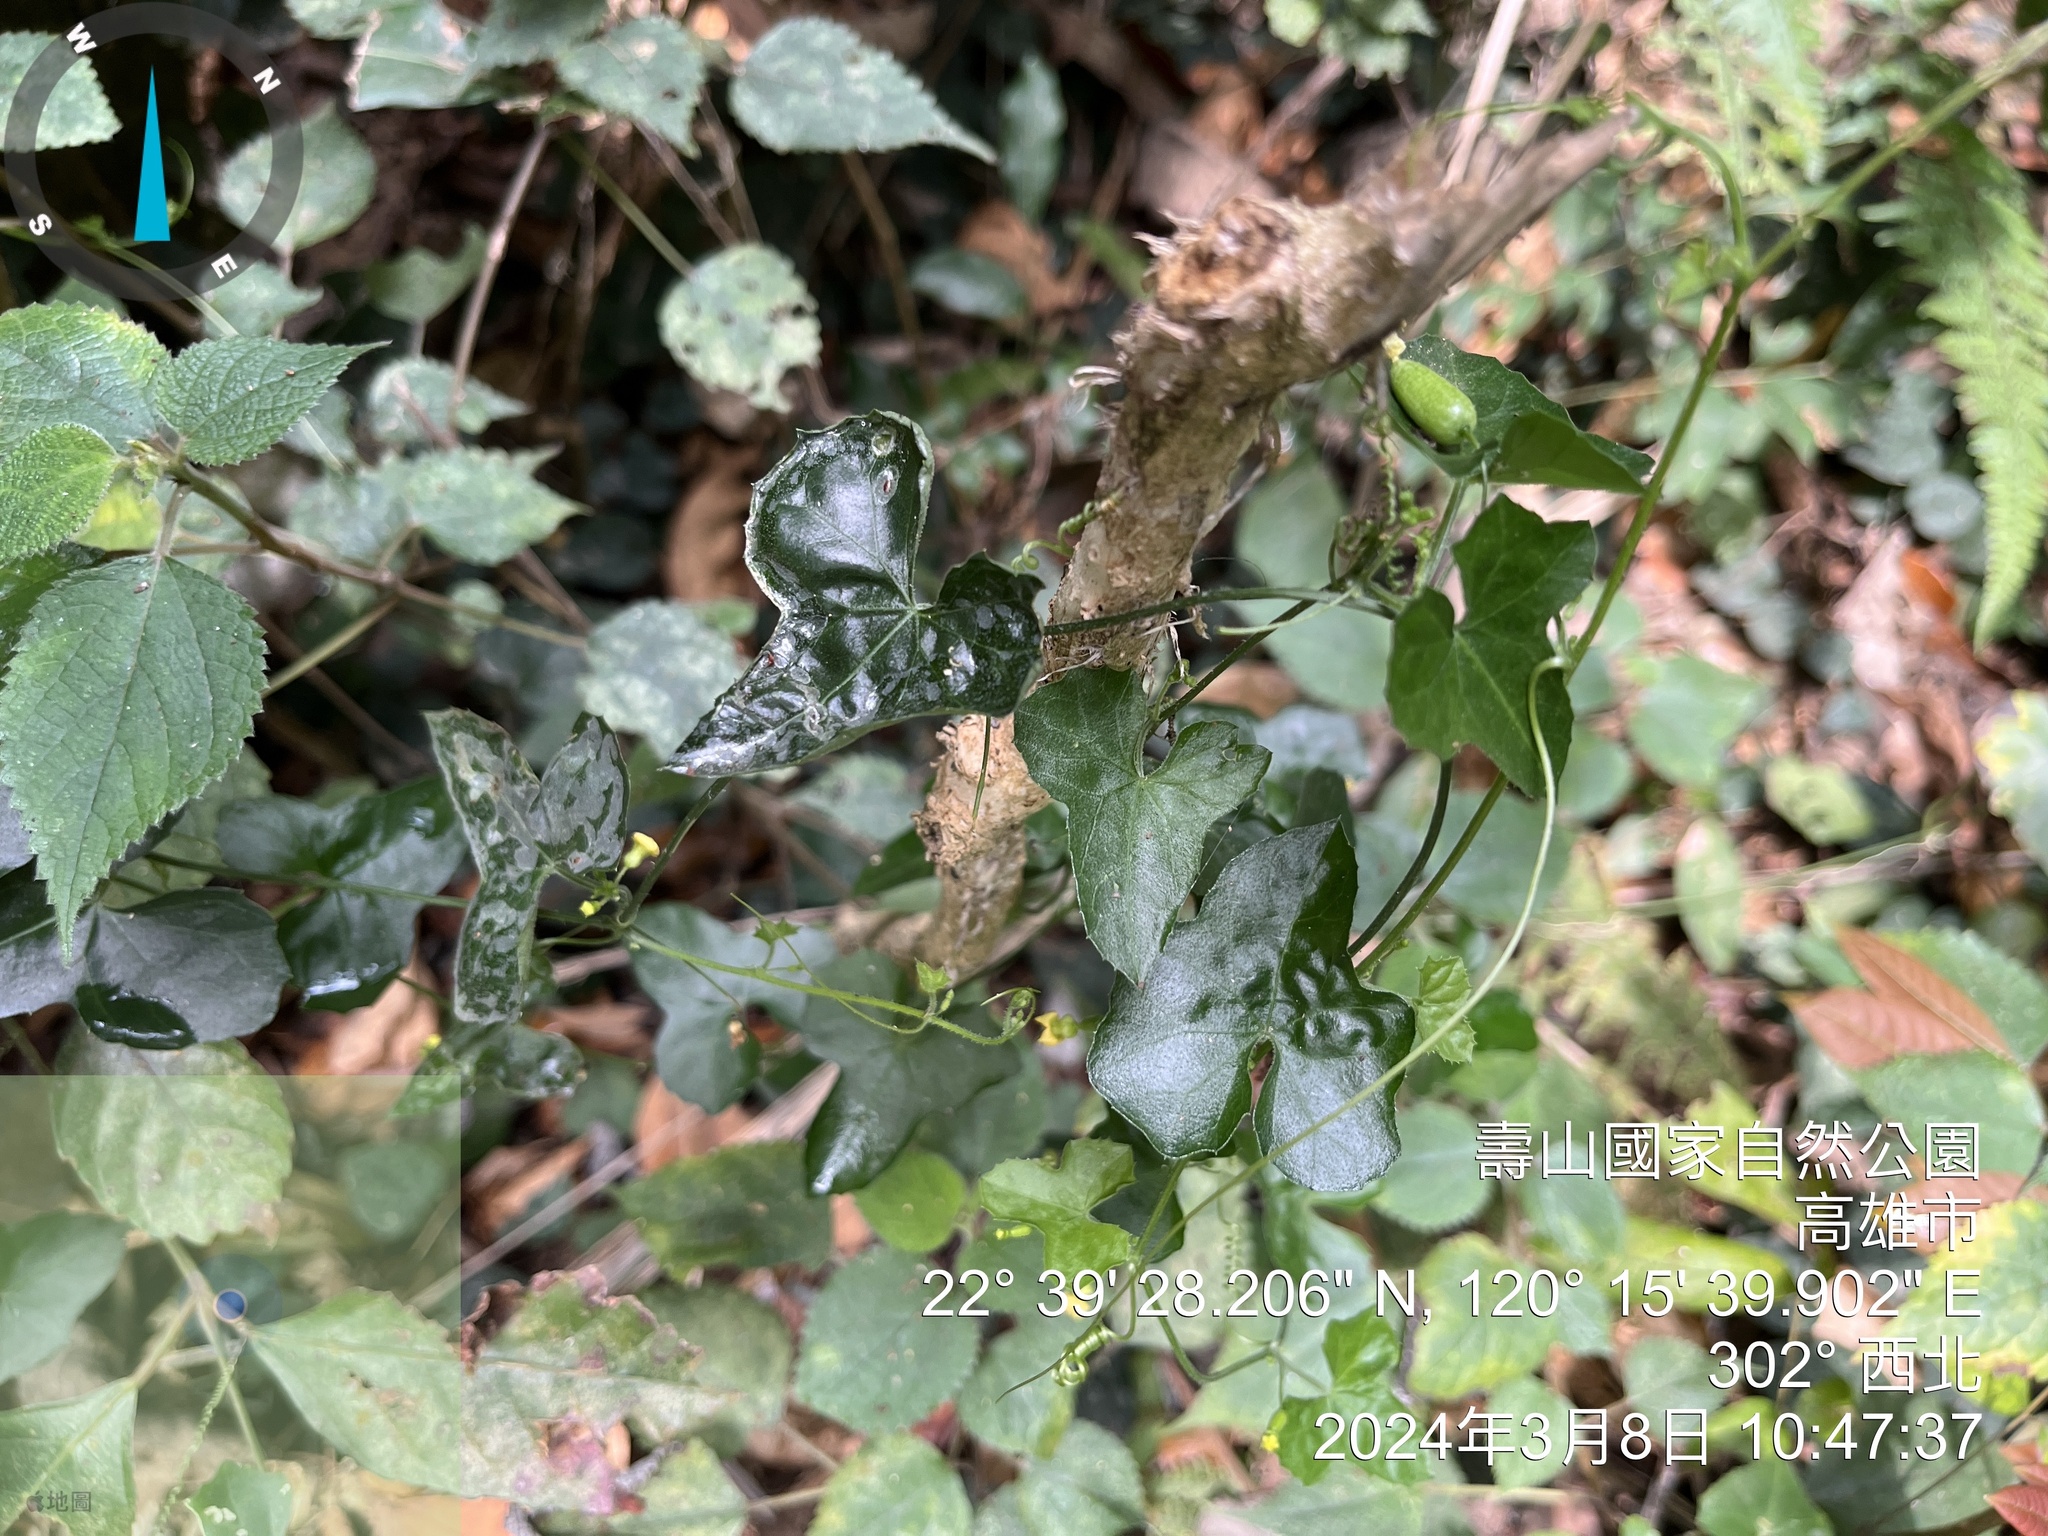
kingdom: Plantae
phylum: Tracheophyta
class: Magnoliopsida
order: Cucurbitales
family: Cucurbitaceae
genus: Melothria
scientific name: Melothria pendula
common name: Creeping-cucumber
